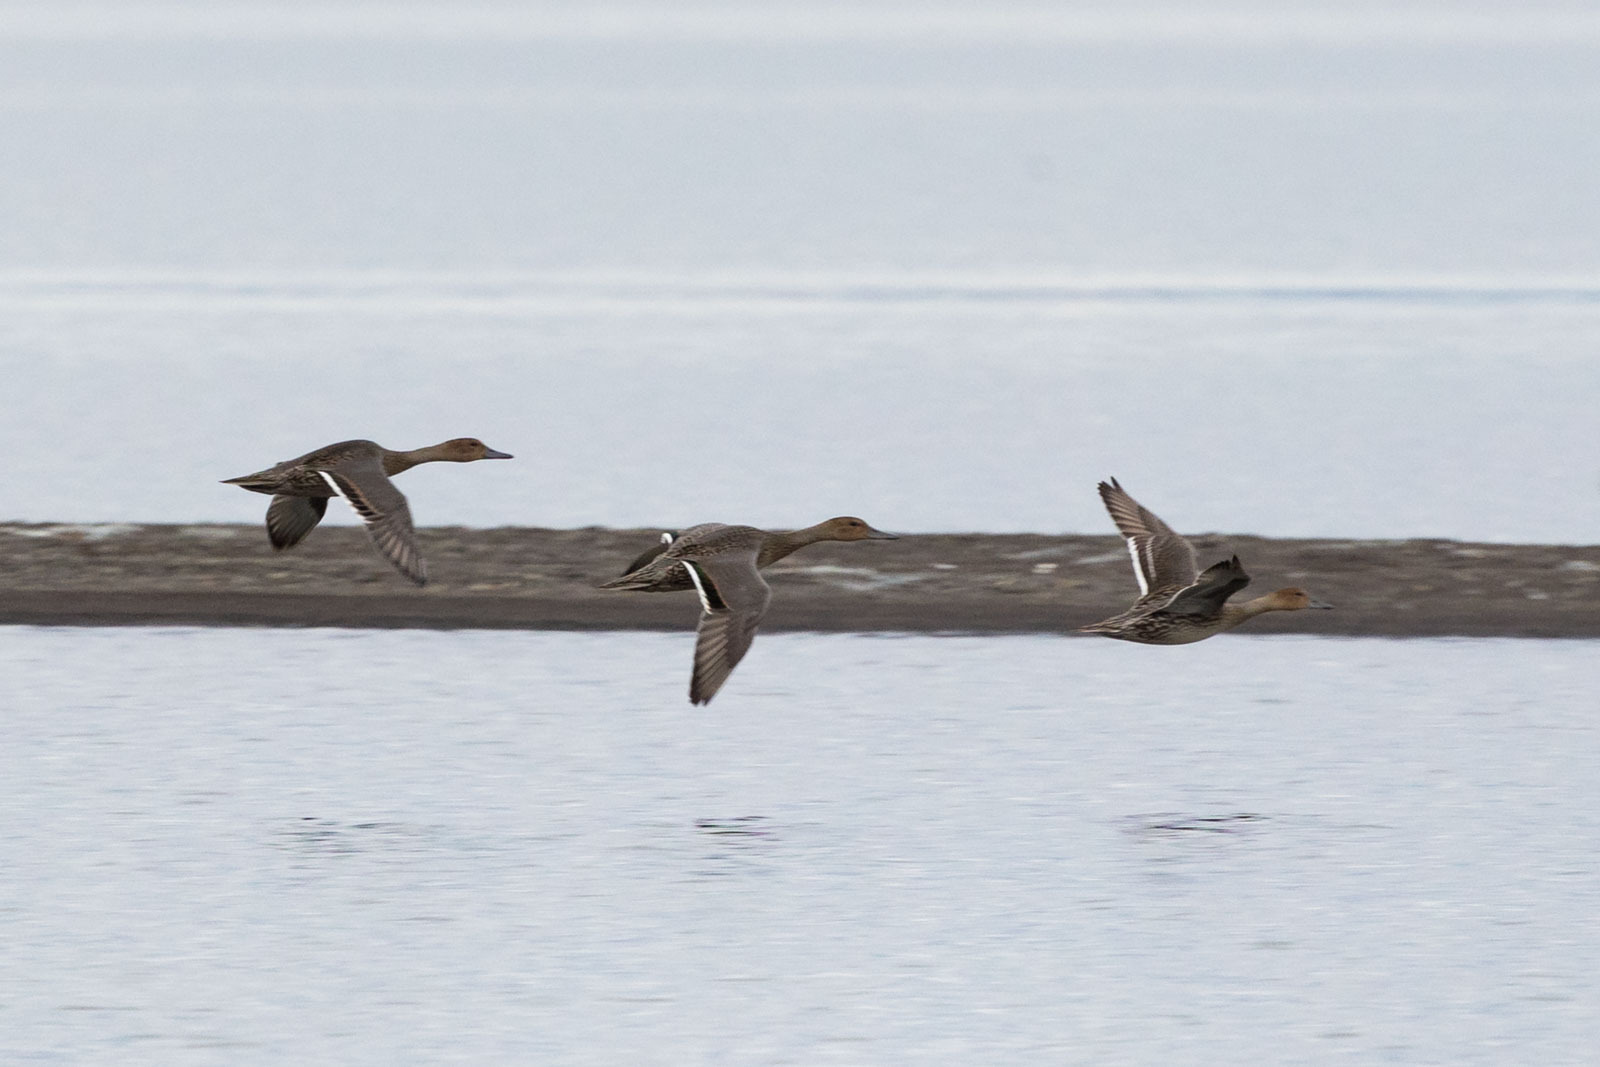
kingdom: Animalia
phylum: Chordata
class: Aves
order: Anseriformes
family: Anatidae
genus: Anas
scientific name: Anas acuta
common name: Northern pintail
